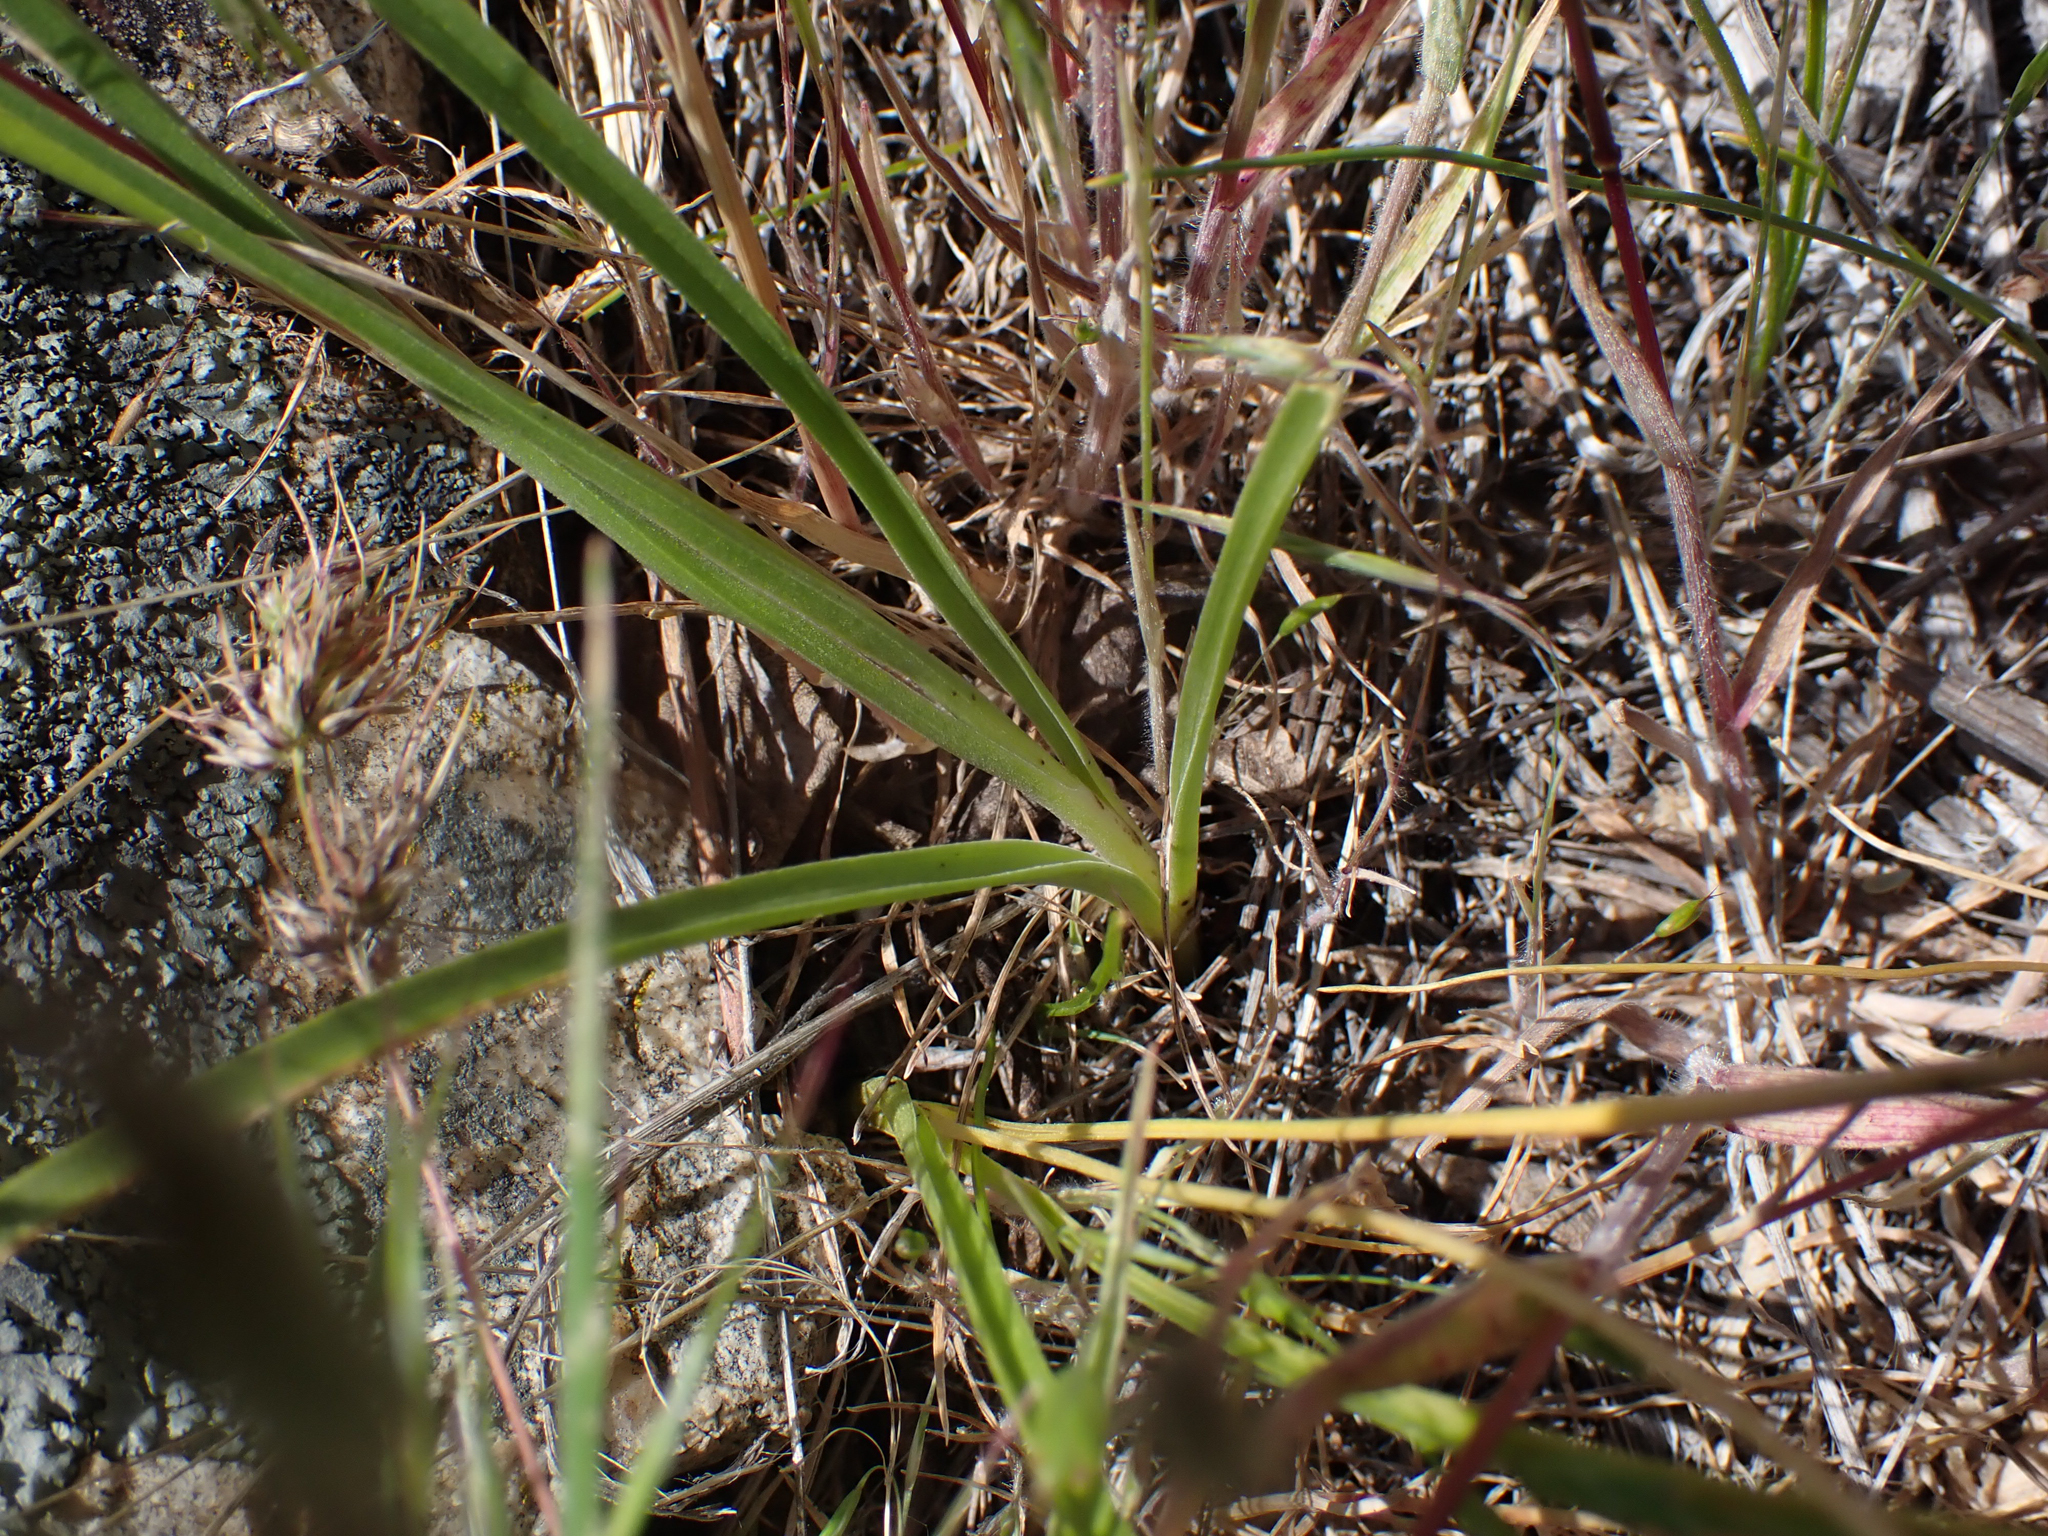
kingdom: Plantae
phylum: Tracheophyta
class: Liliopsida
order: Liliales
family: Melanthiaceae
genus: Toxicoscordion
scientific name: Toxicoscordion venenosum
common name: Meadow death camas
